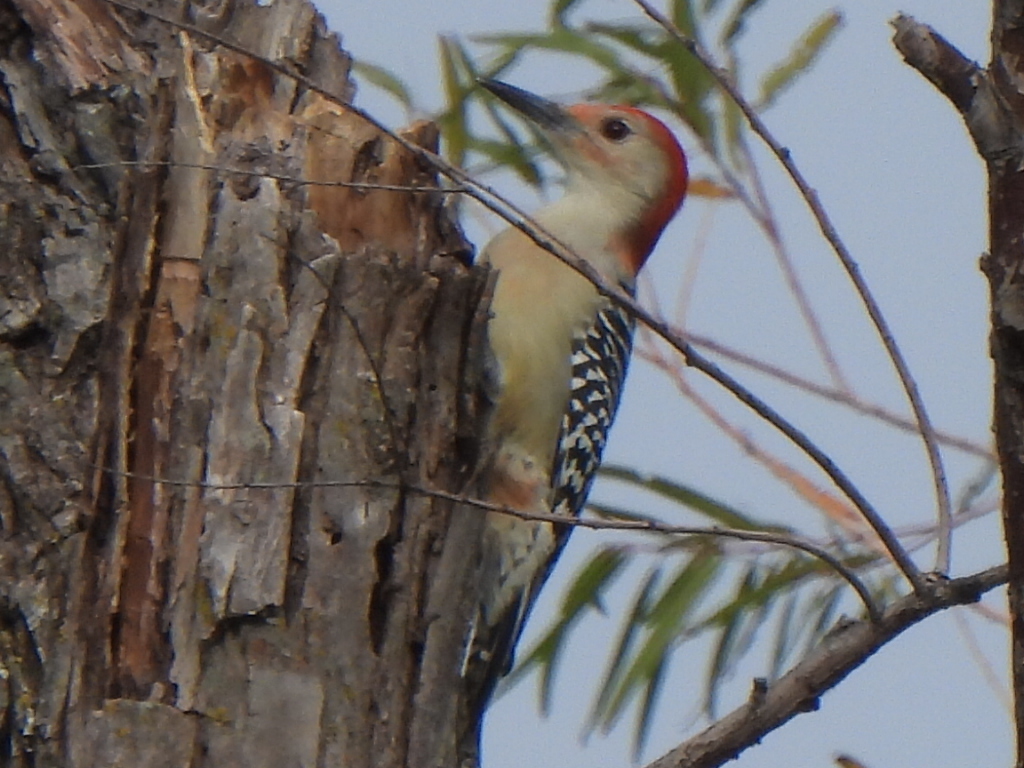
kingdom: Animalia
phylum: Chordata
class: Aves
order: Piciformes
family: Picidae
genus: Melanerpes
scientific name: Melanerpes carolinus
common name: Red-bellied woodpecker
